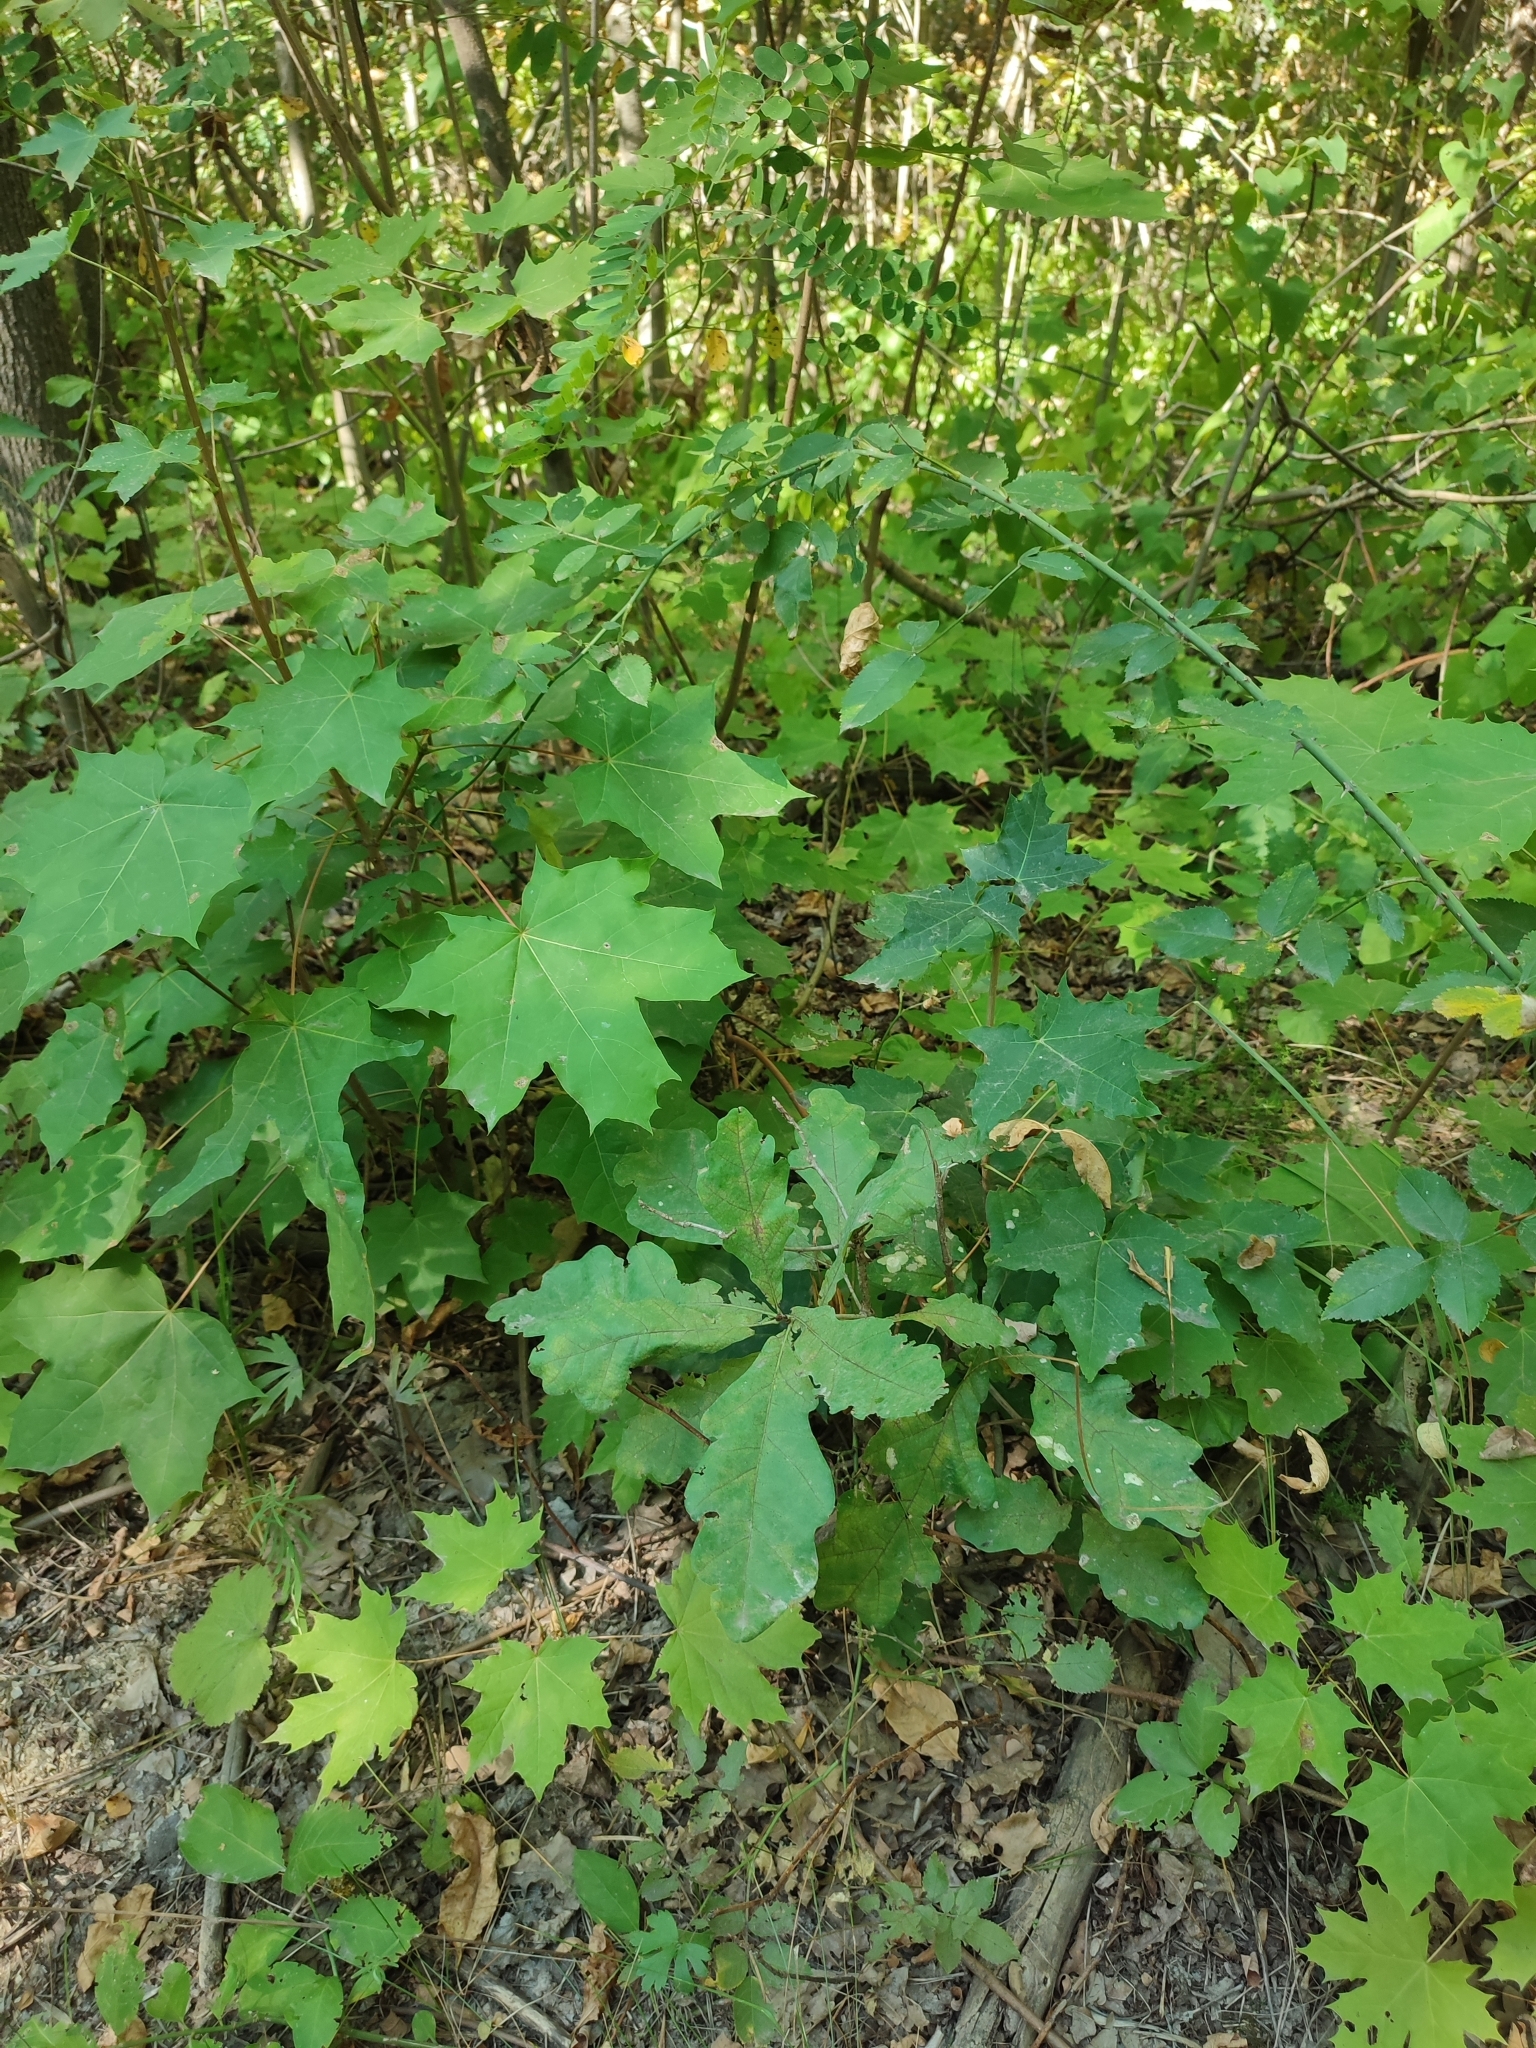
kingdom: Plantae
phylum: Tracheophyta
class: Magnoliopsida
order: Fagales
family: Fagaceae
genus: Quercus
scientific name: Quercus robur
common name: Pedunculate oak
